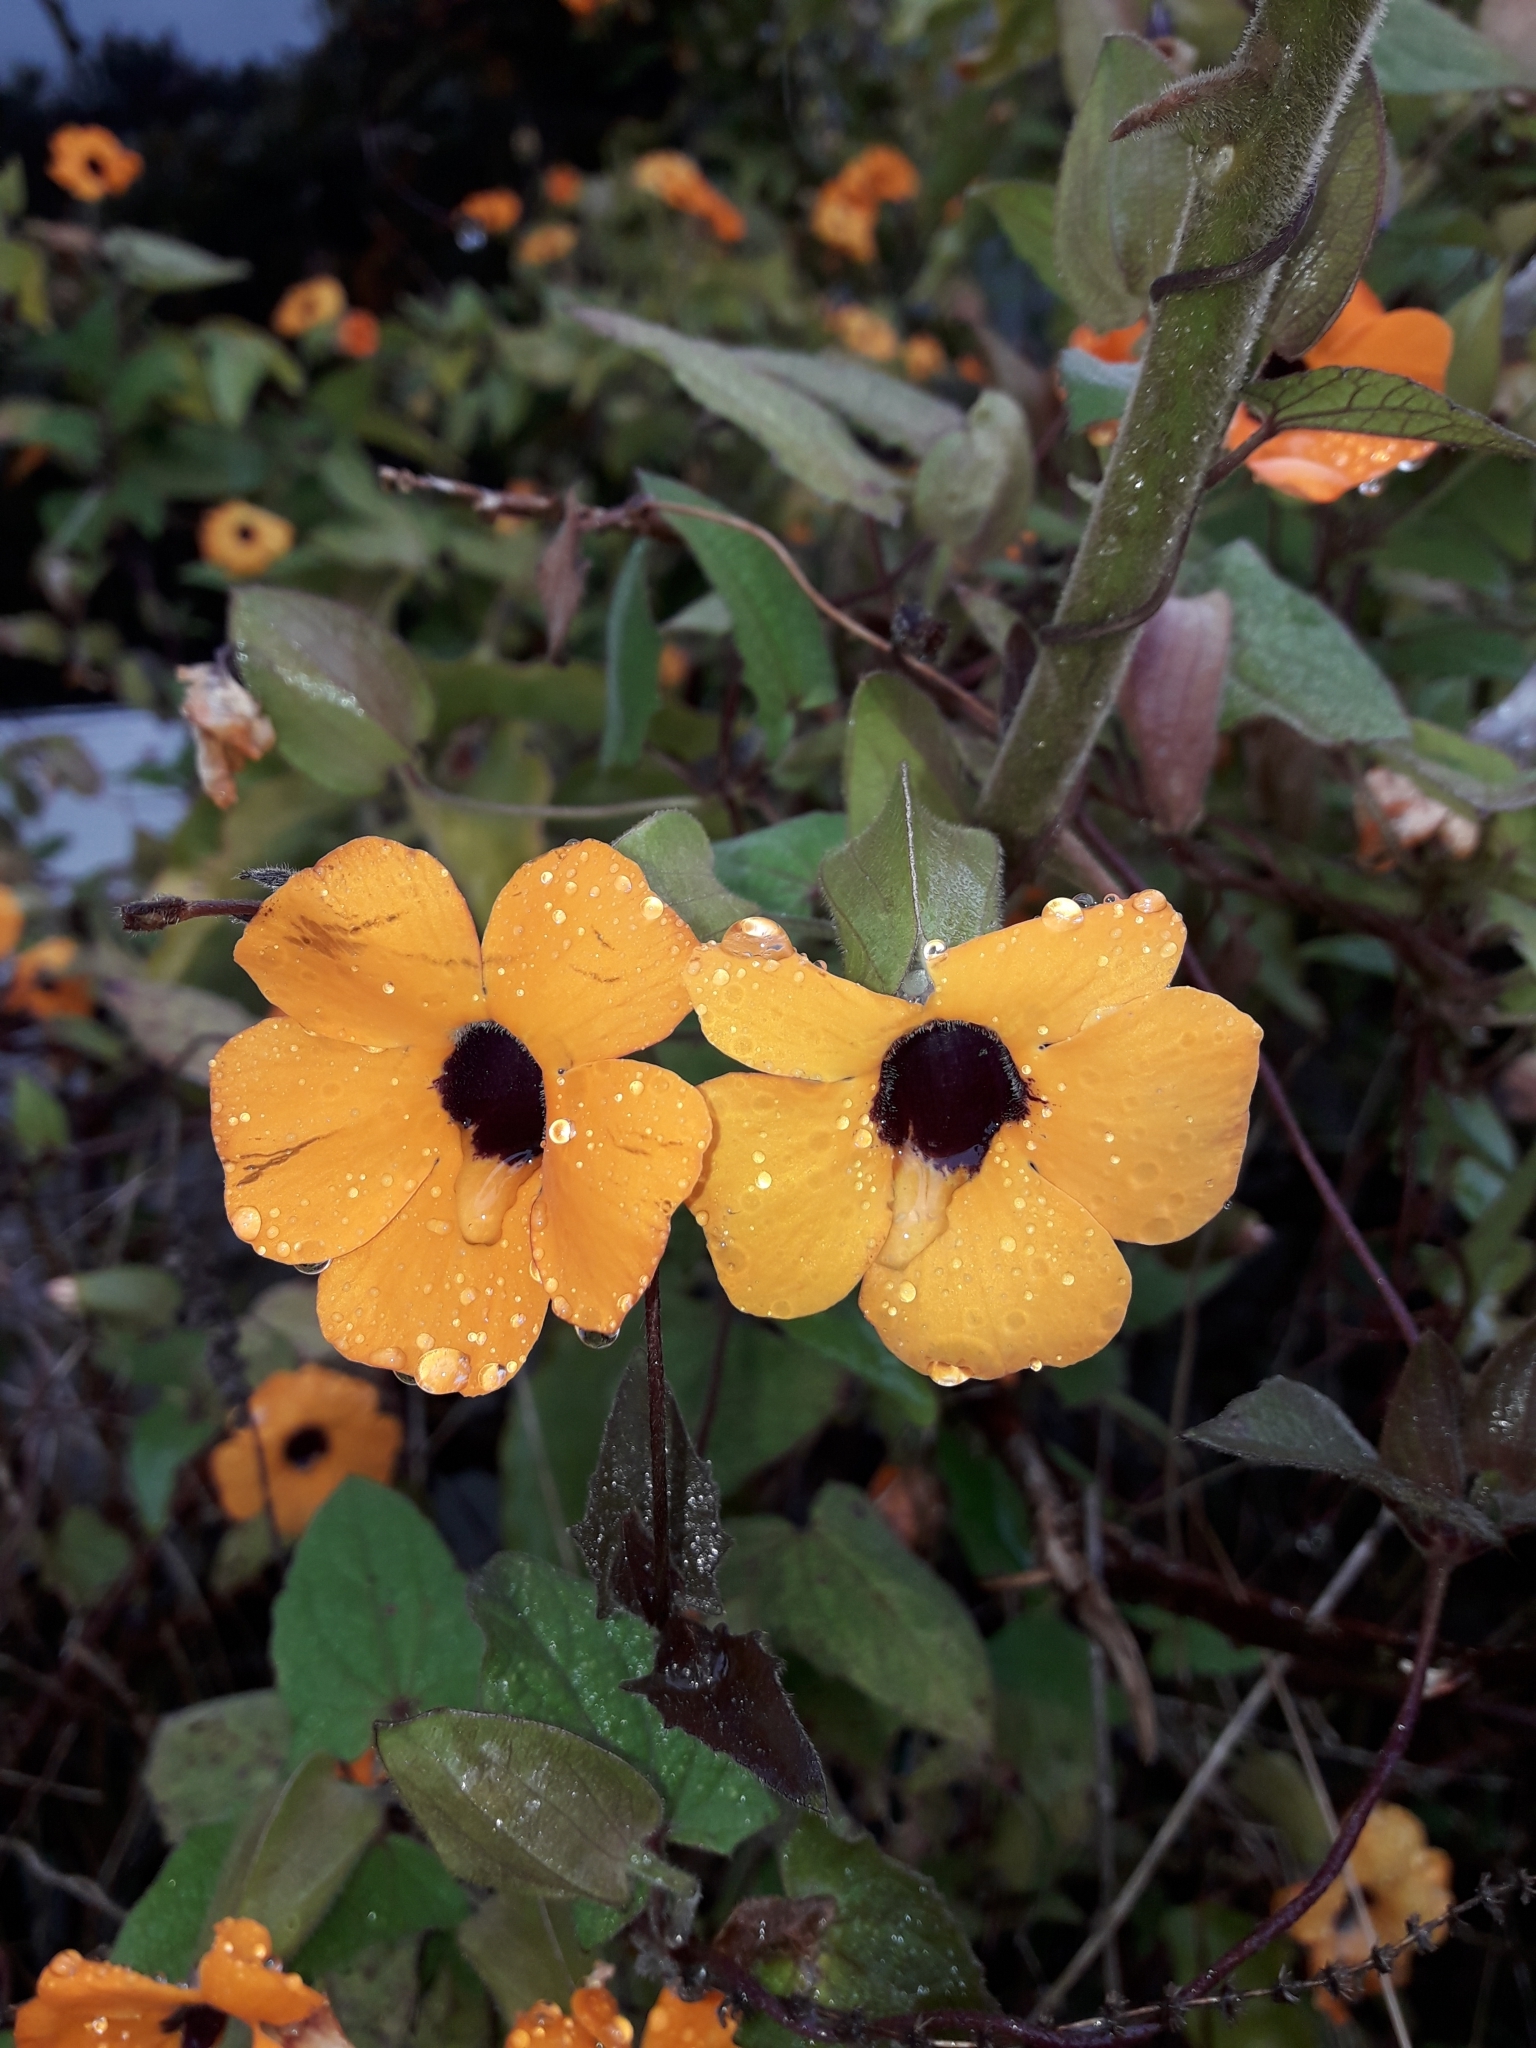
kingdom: Plantae
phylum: Tracheophyta
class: Magnoliopsida
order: Lamiales
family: Acanthaceae
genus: Thunbergia
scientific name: Thunbergia alata
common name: Blackeyed susan vine
